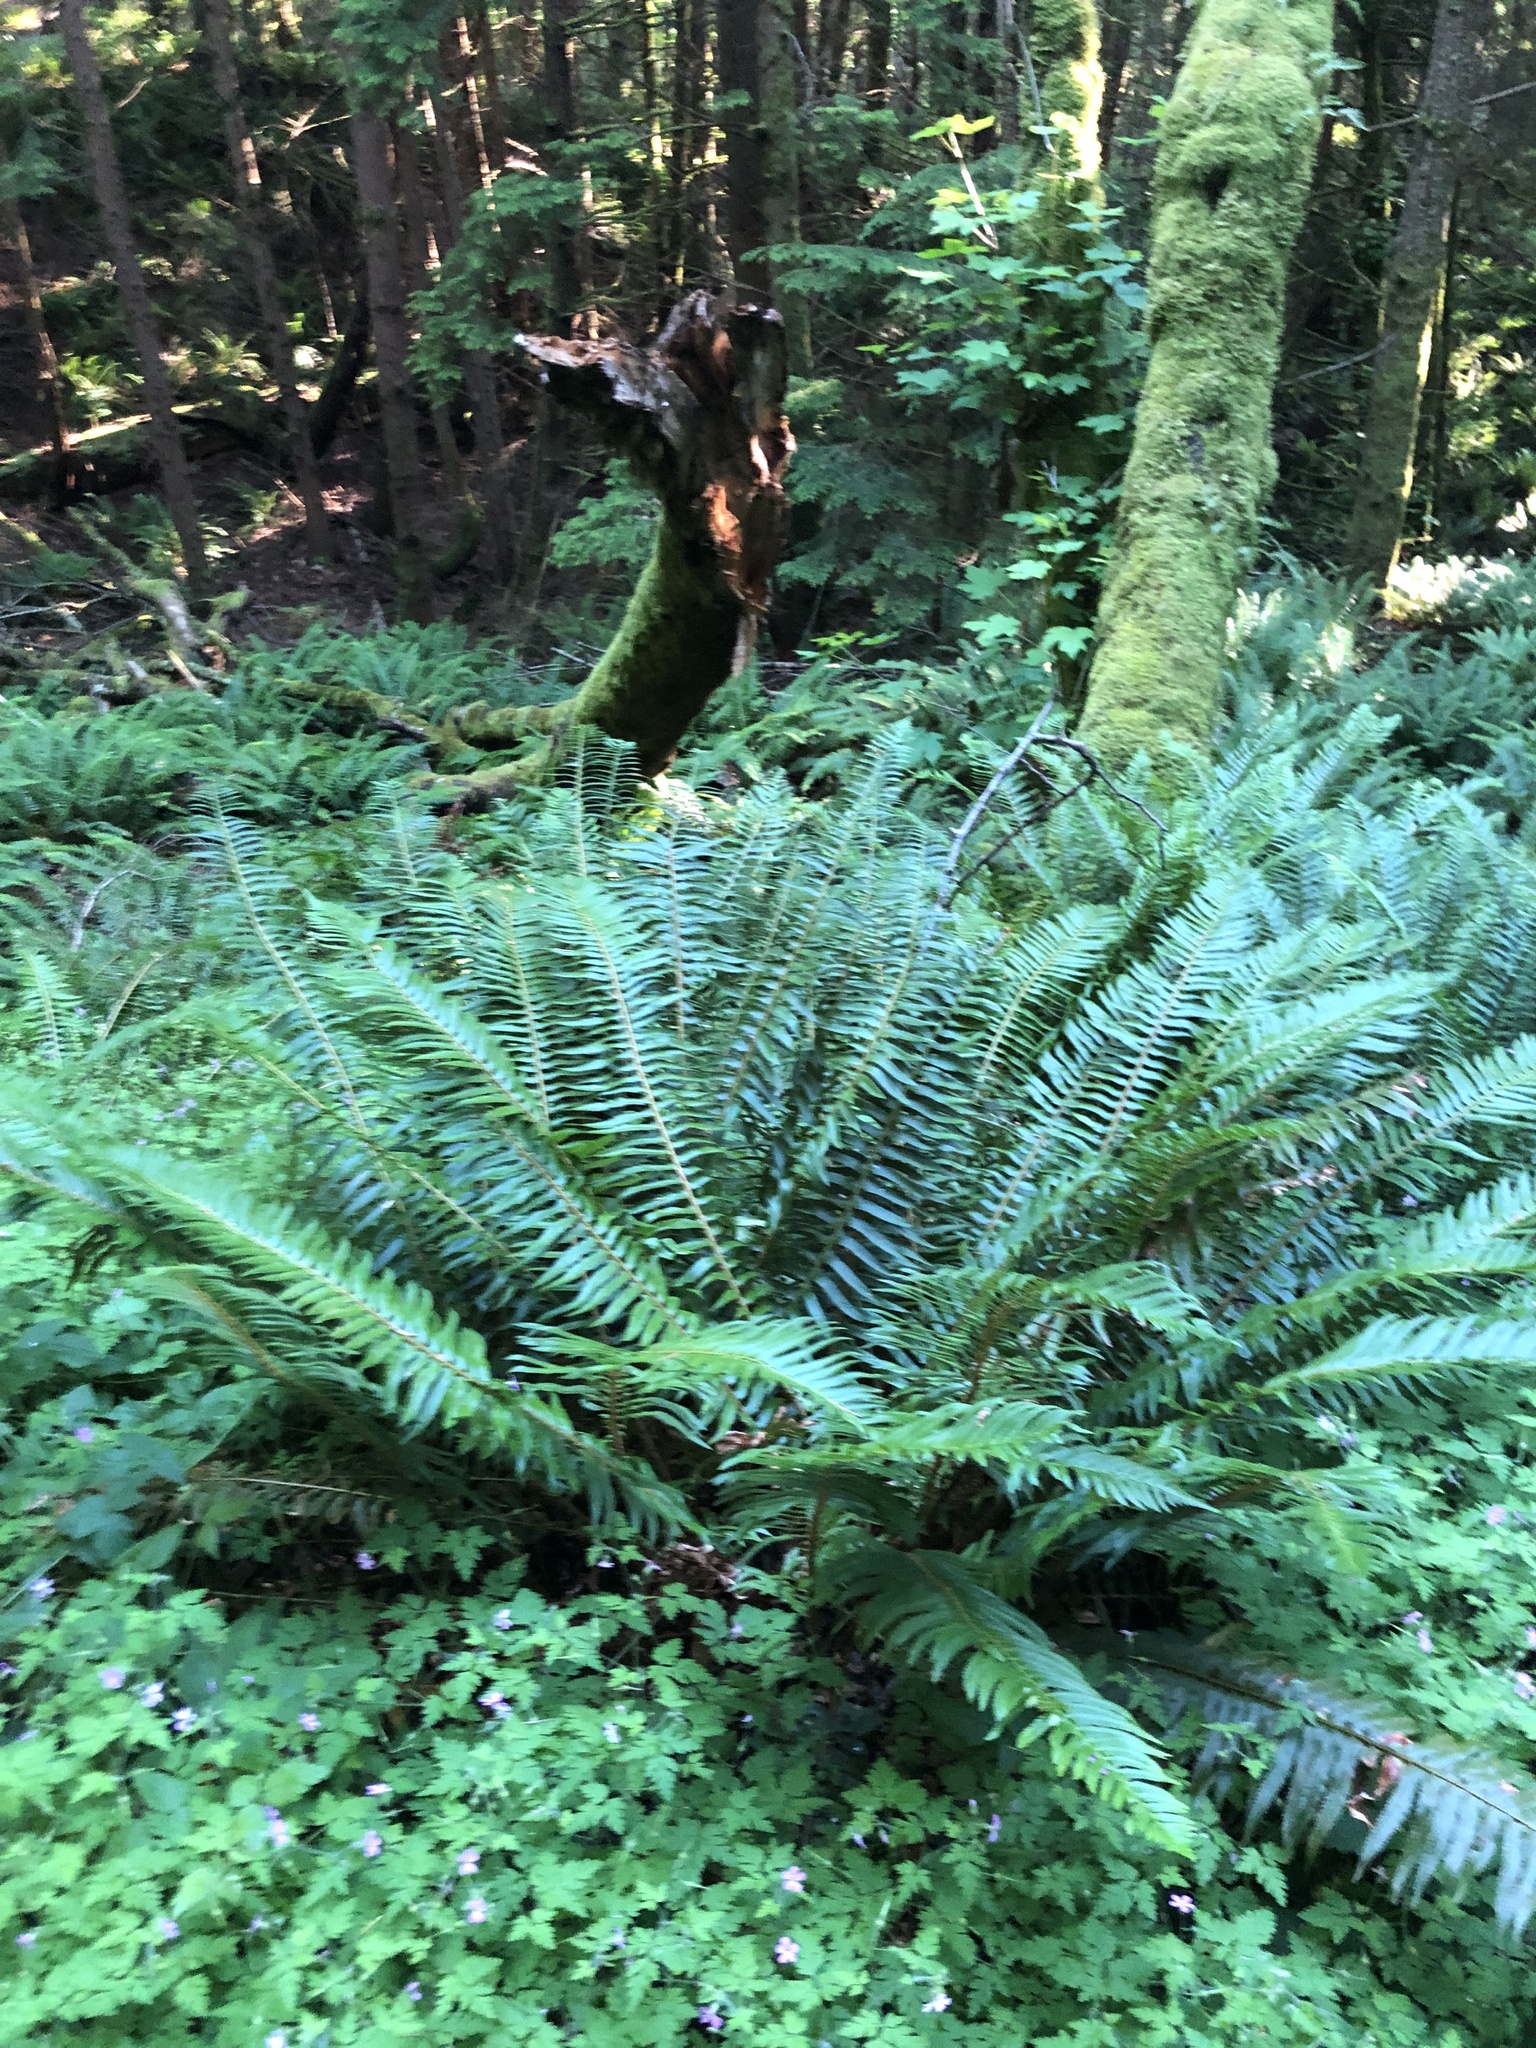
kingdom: Plantae
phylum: Tracheophyta
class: Polypodiopsida
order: Polypodiales
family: Dryopteridaceae
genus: Polystichum
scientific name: Polystichum munitum
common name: Western sword-fern
